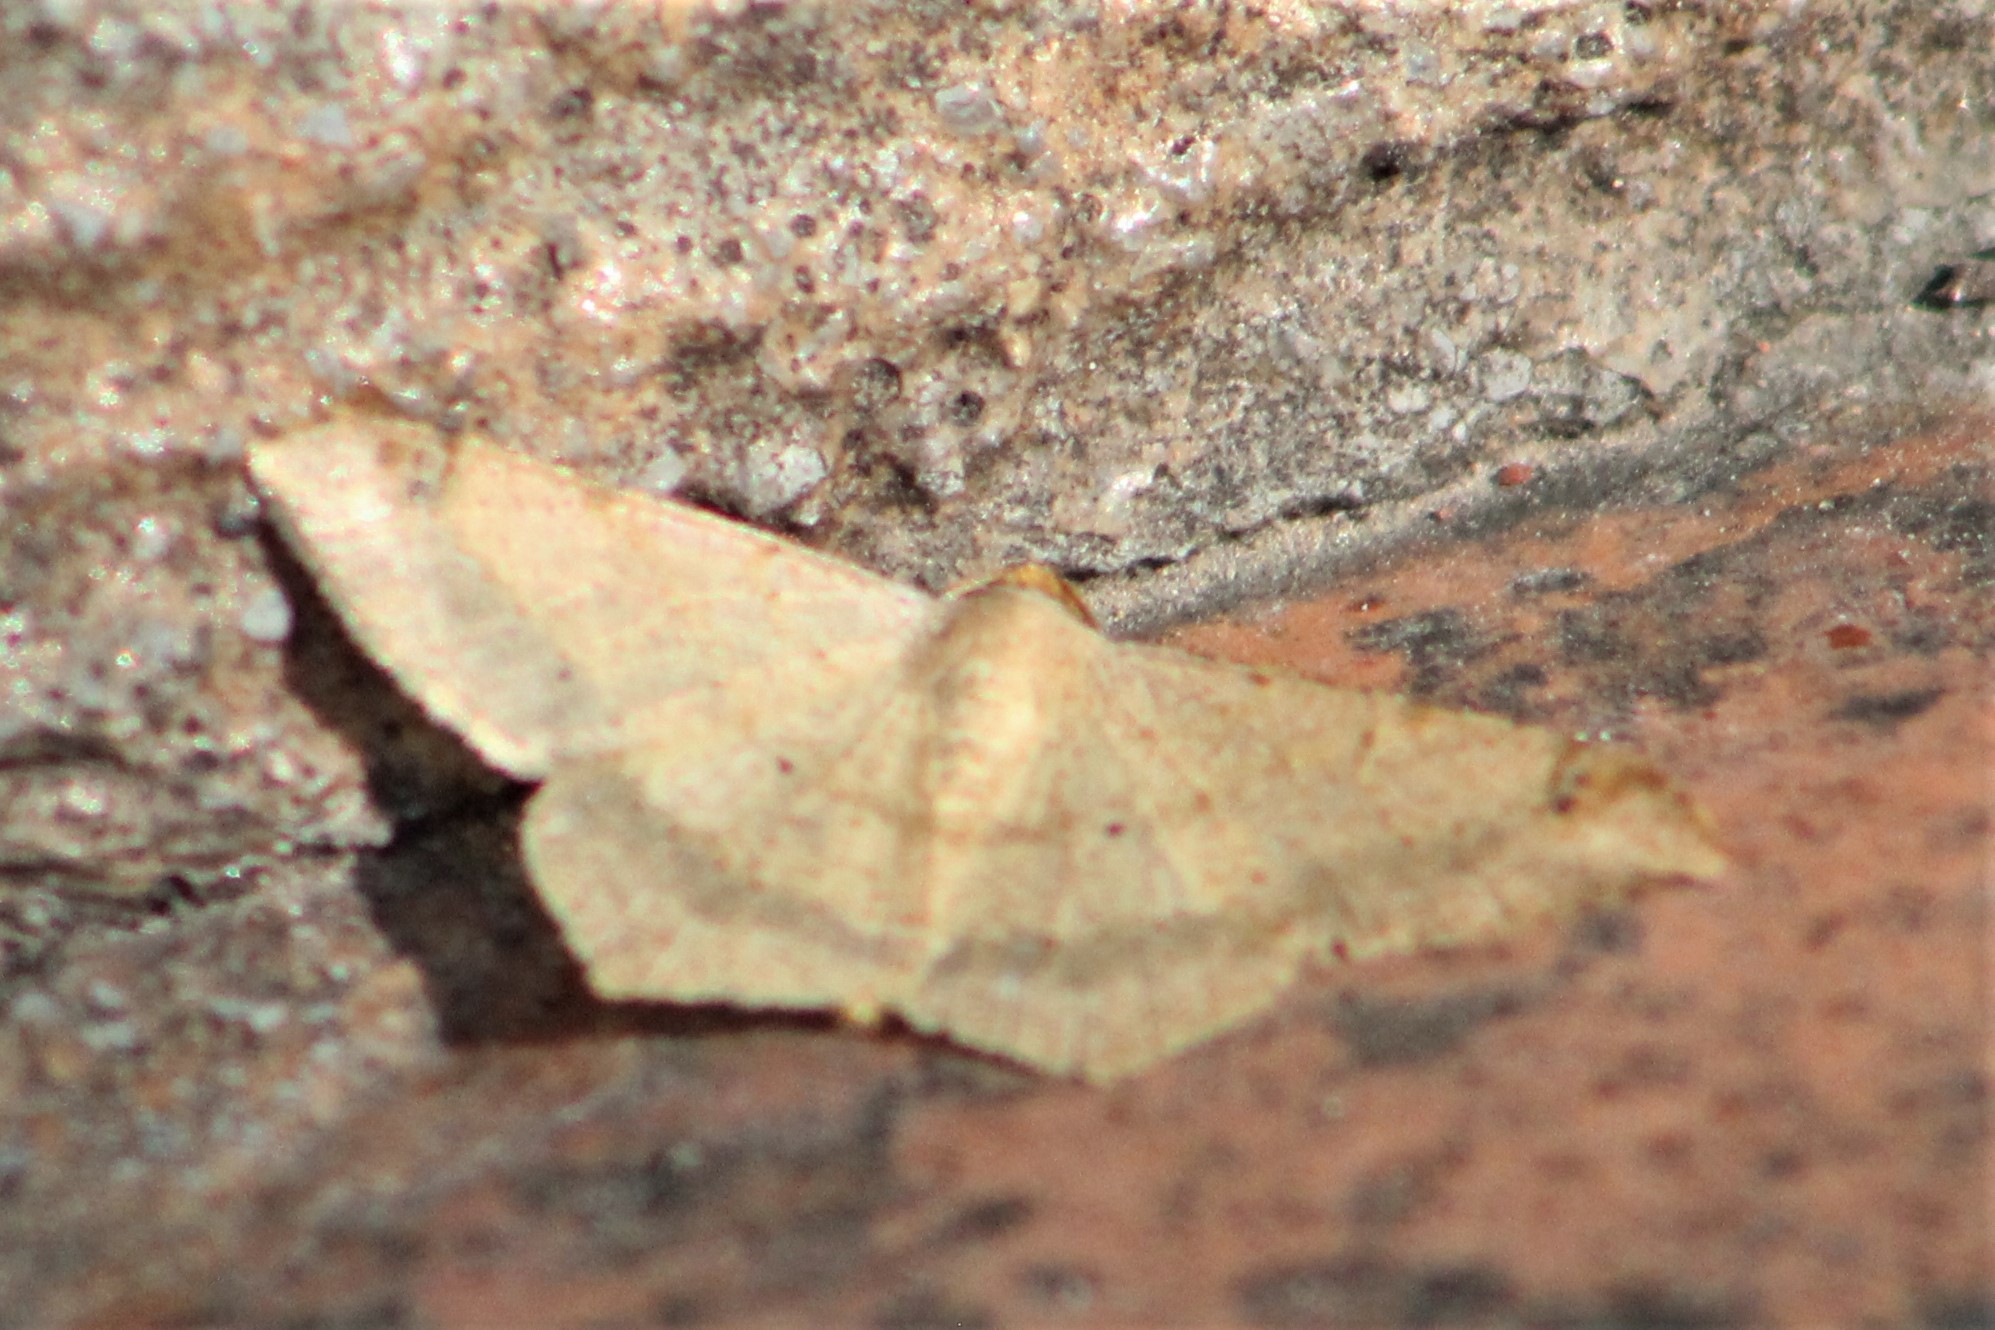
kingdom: Animalia
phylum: Arthropoda
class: Insecta
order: Lepidoptera
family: Geometridae
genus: Macaria
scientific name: Macaria abydata
